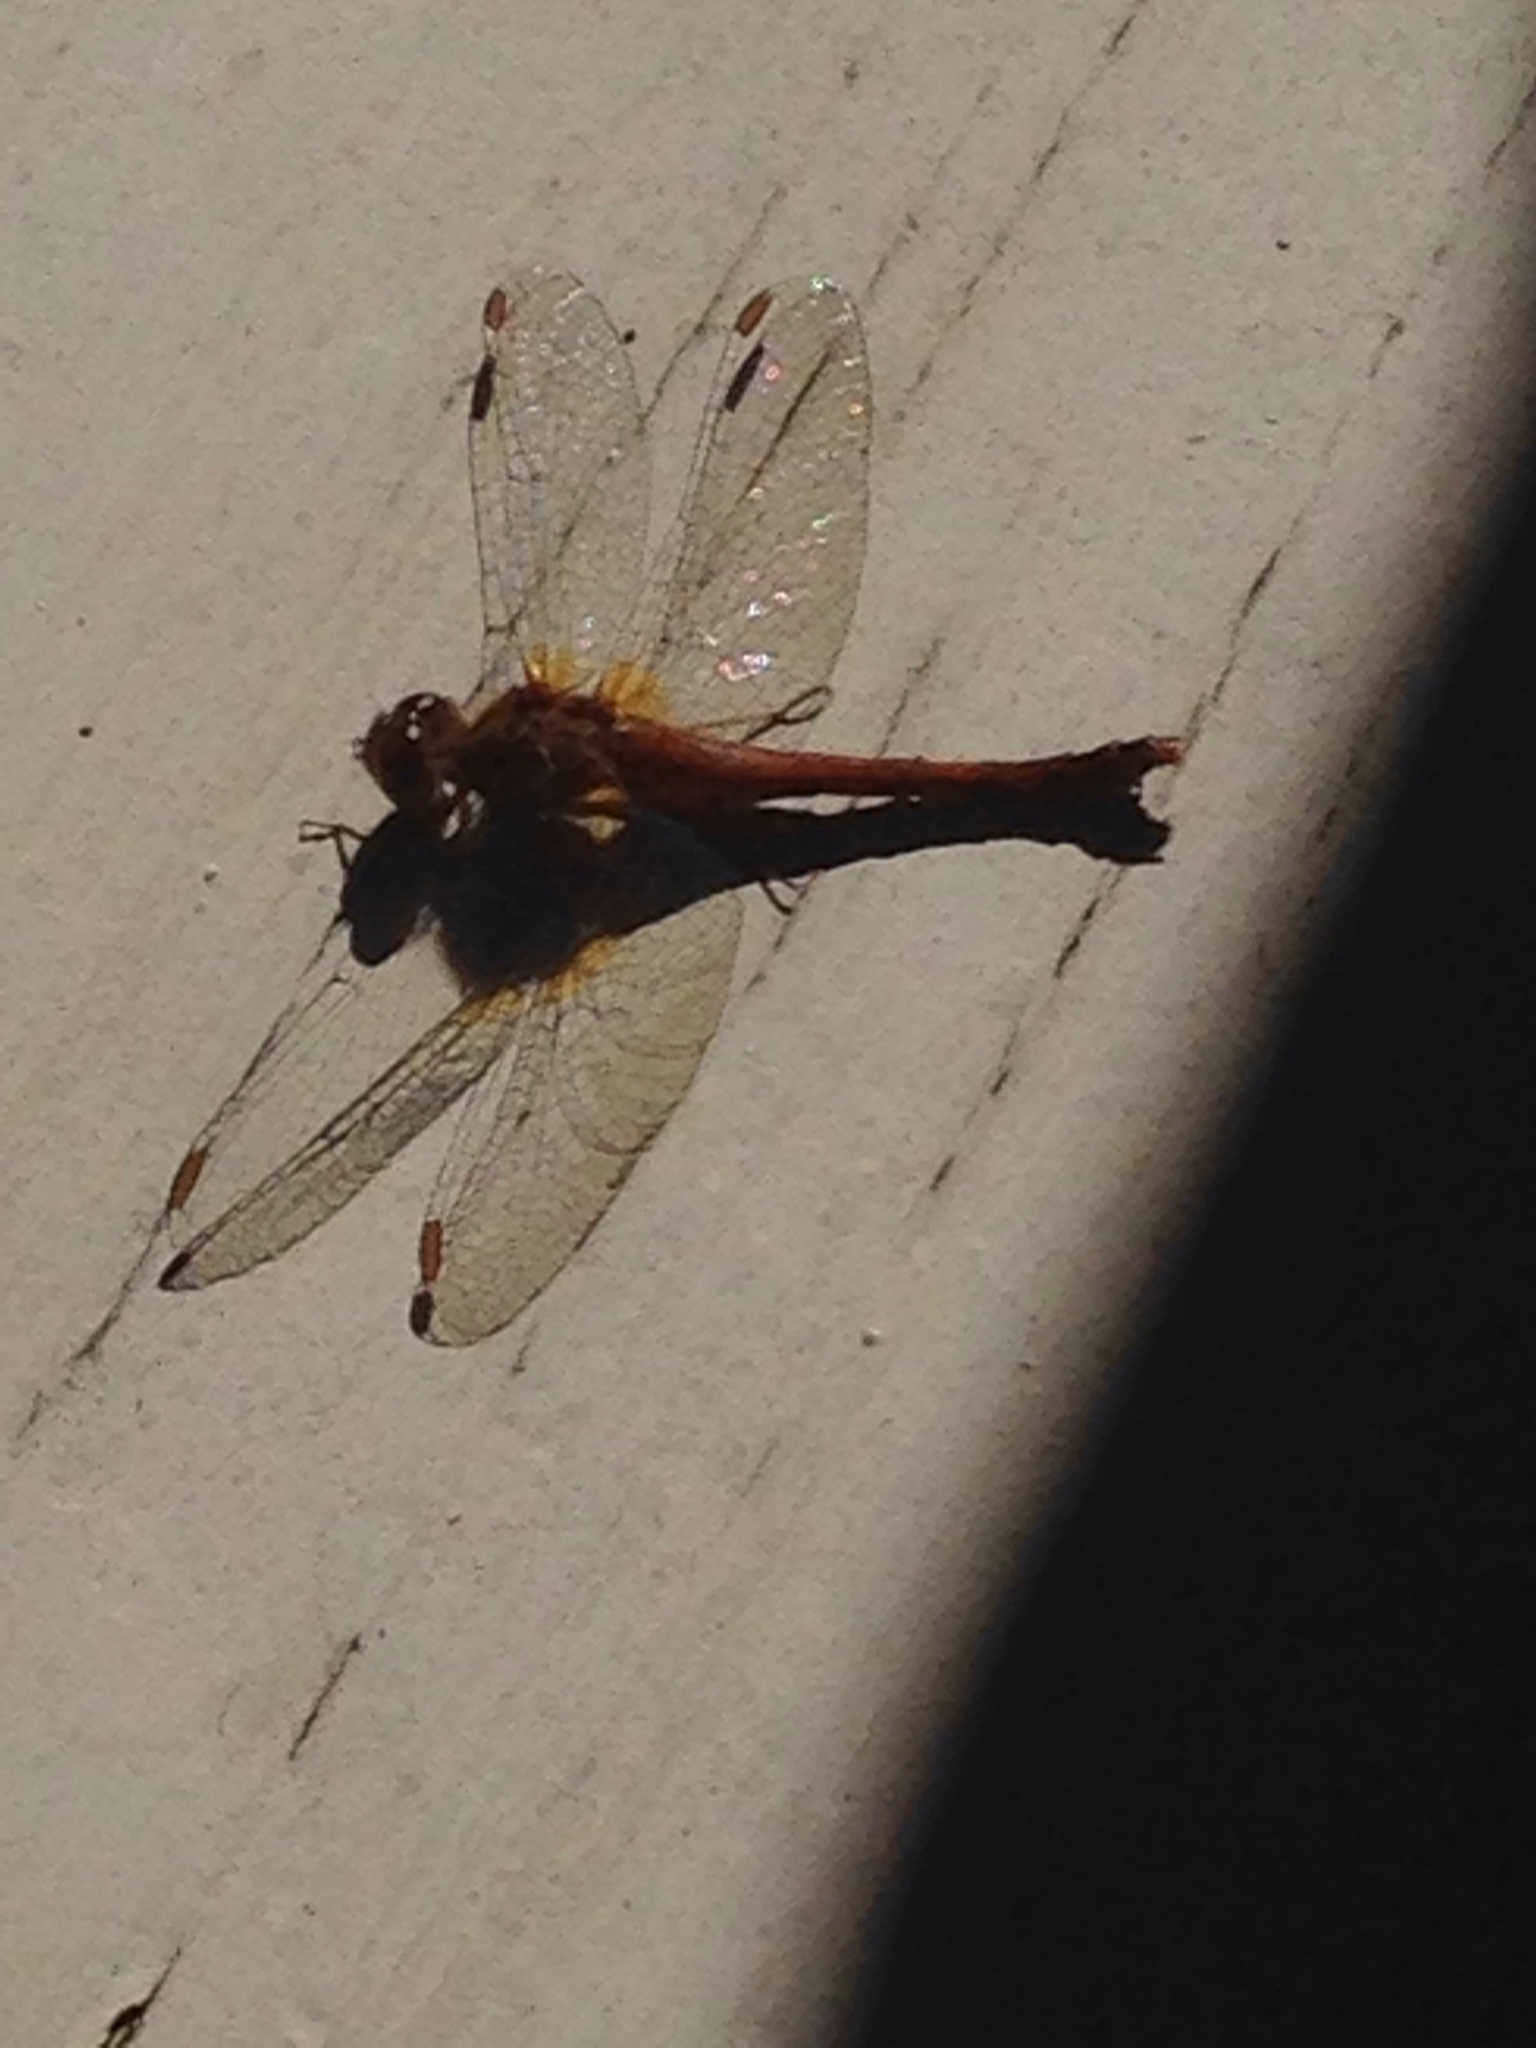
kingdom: Animalia
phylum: Arthropoda
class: Insecta
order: Odonata
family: Libellulidae
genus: Sympetrum
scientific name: Sympetrum vicinum
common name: Autumn meadowhawk
